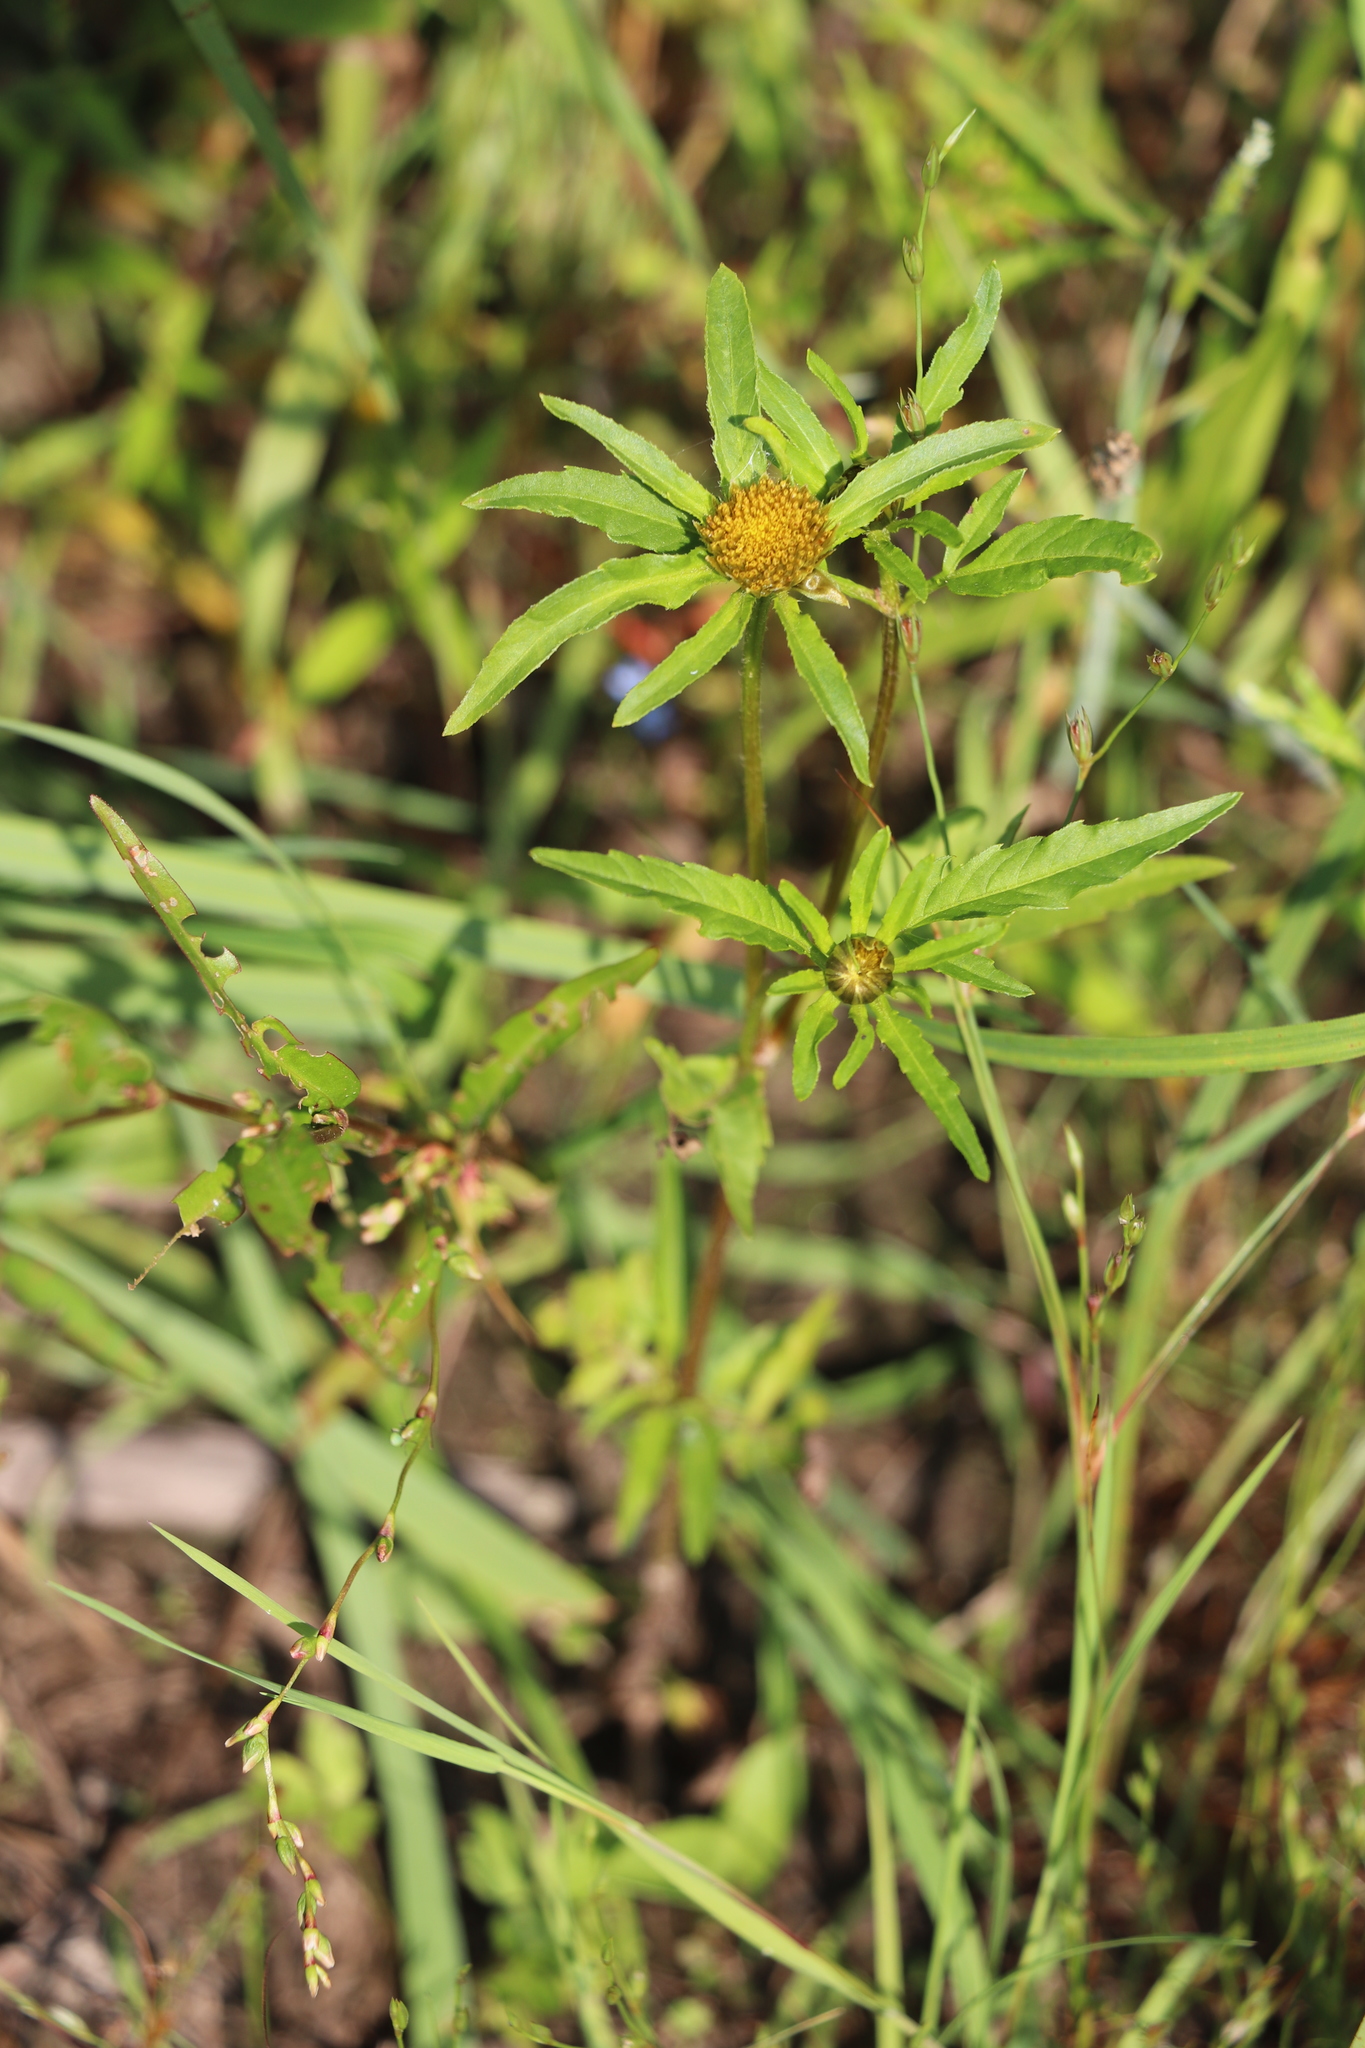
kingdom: Plantae
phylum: Tracheophyta
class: Magnoliopsida
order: Asterales
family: Asteraceae
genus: Bidens
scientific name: Bidens tripartita
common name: Trifid bur-marigold
